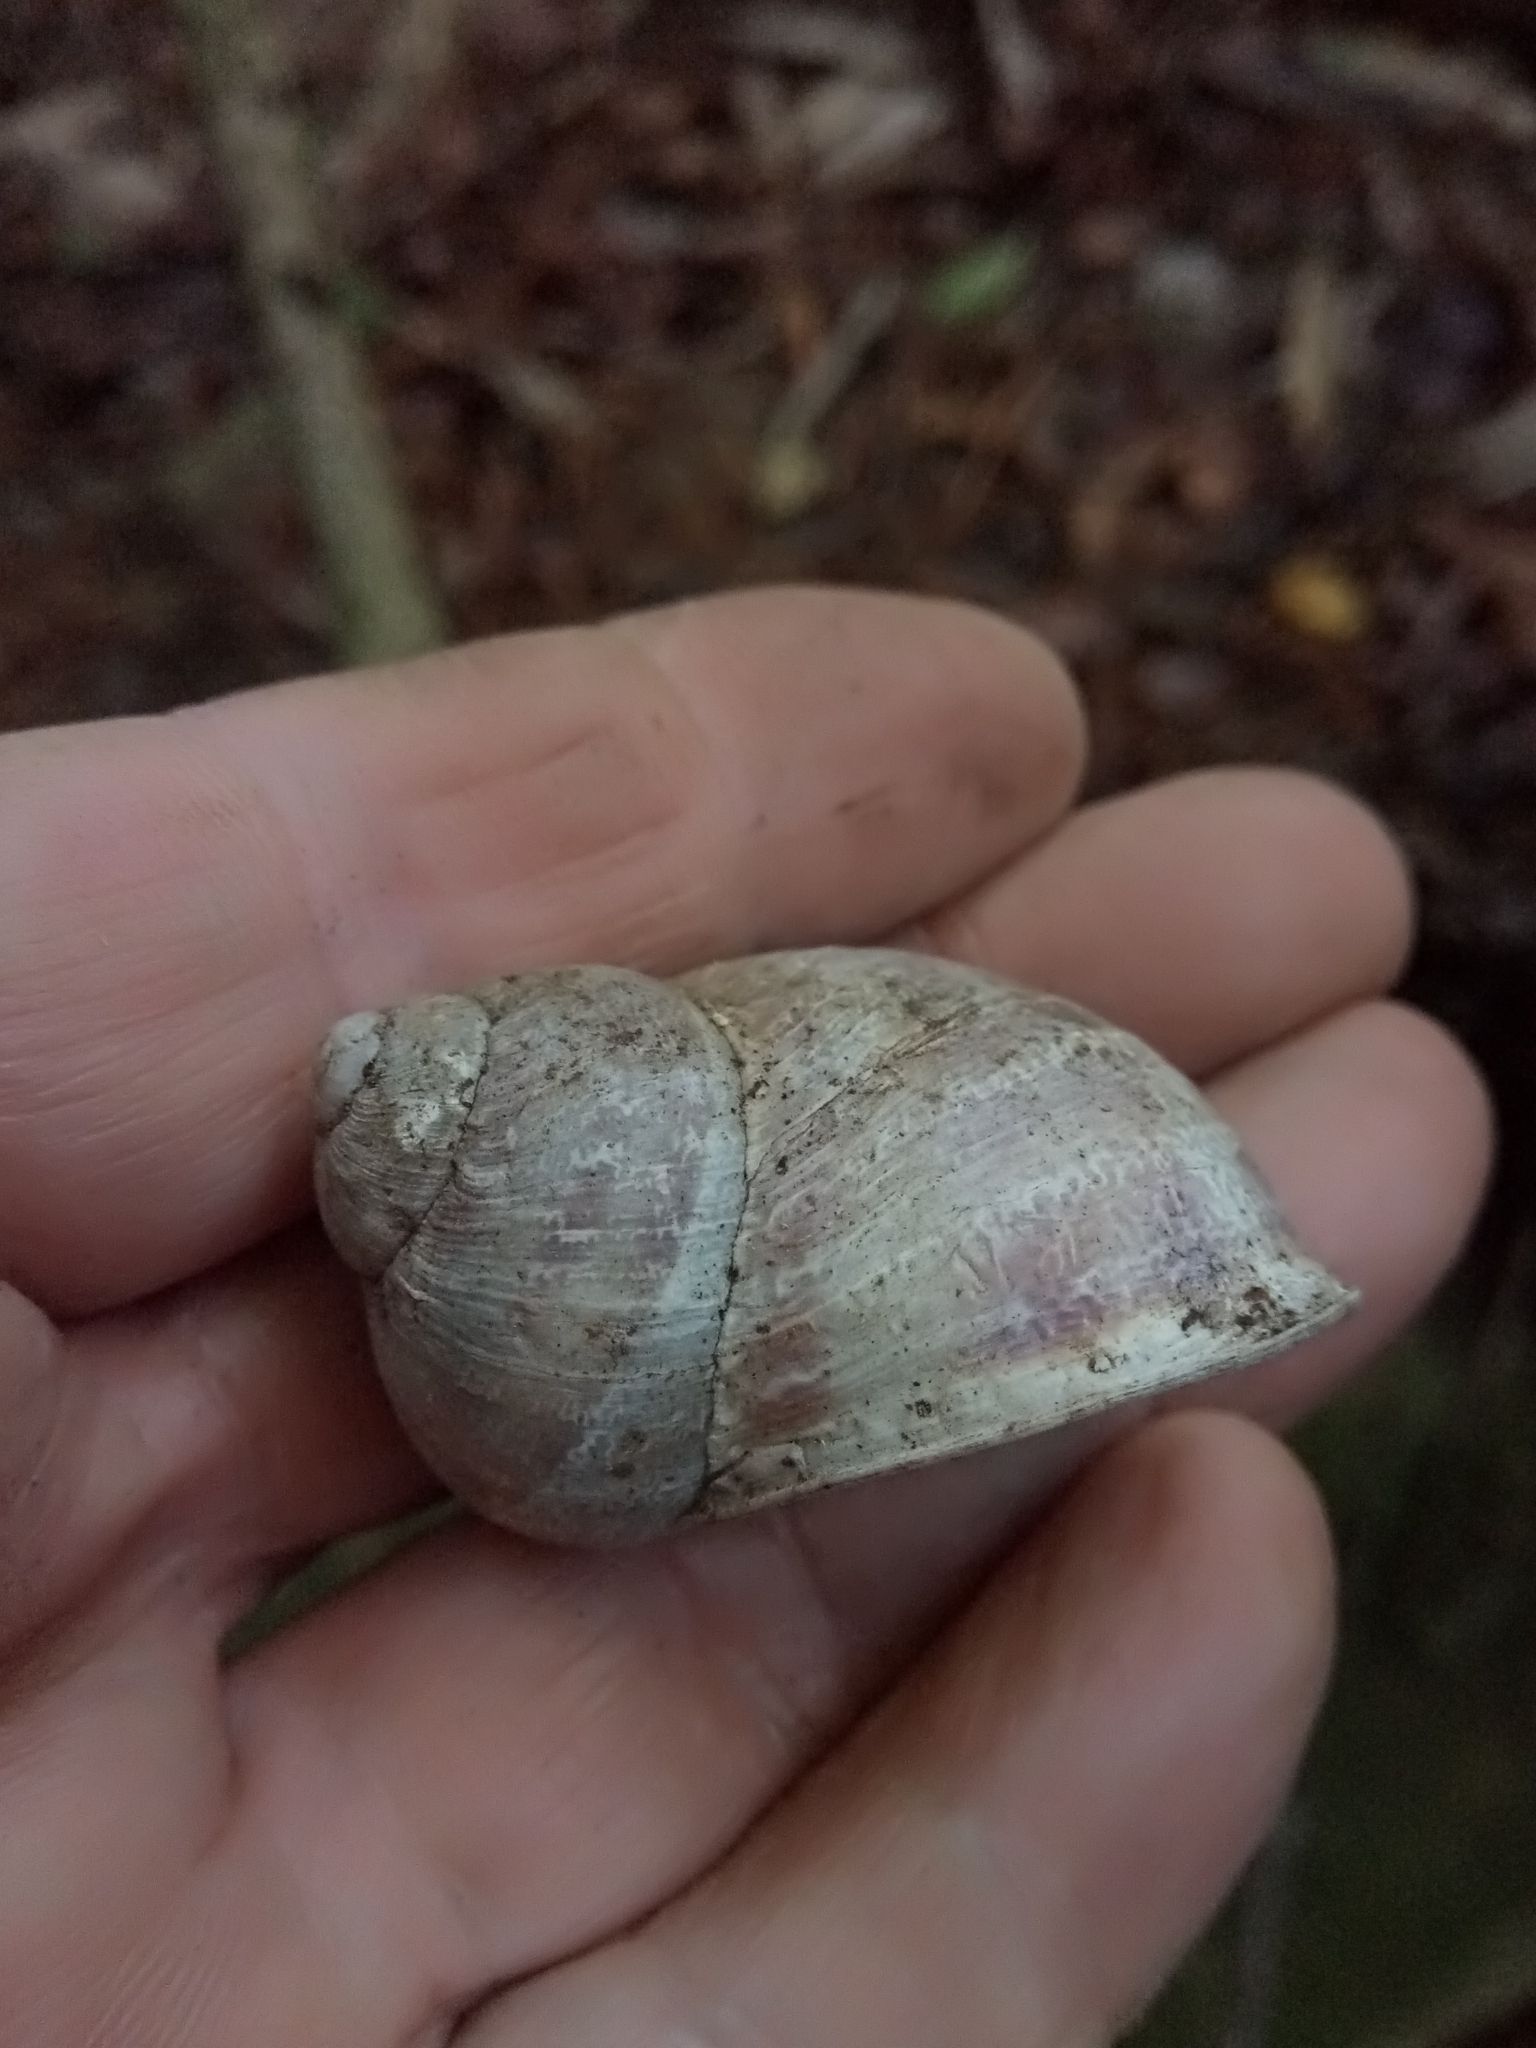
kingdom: Animalia
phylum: Mollusca
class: Gastropoda
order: Stylommatophora
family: Helicidae
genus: Cornu
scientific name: Cornu aspersum
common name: Brown garden snail
